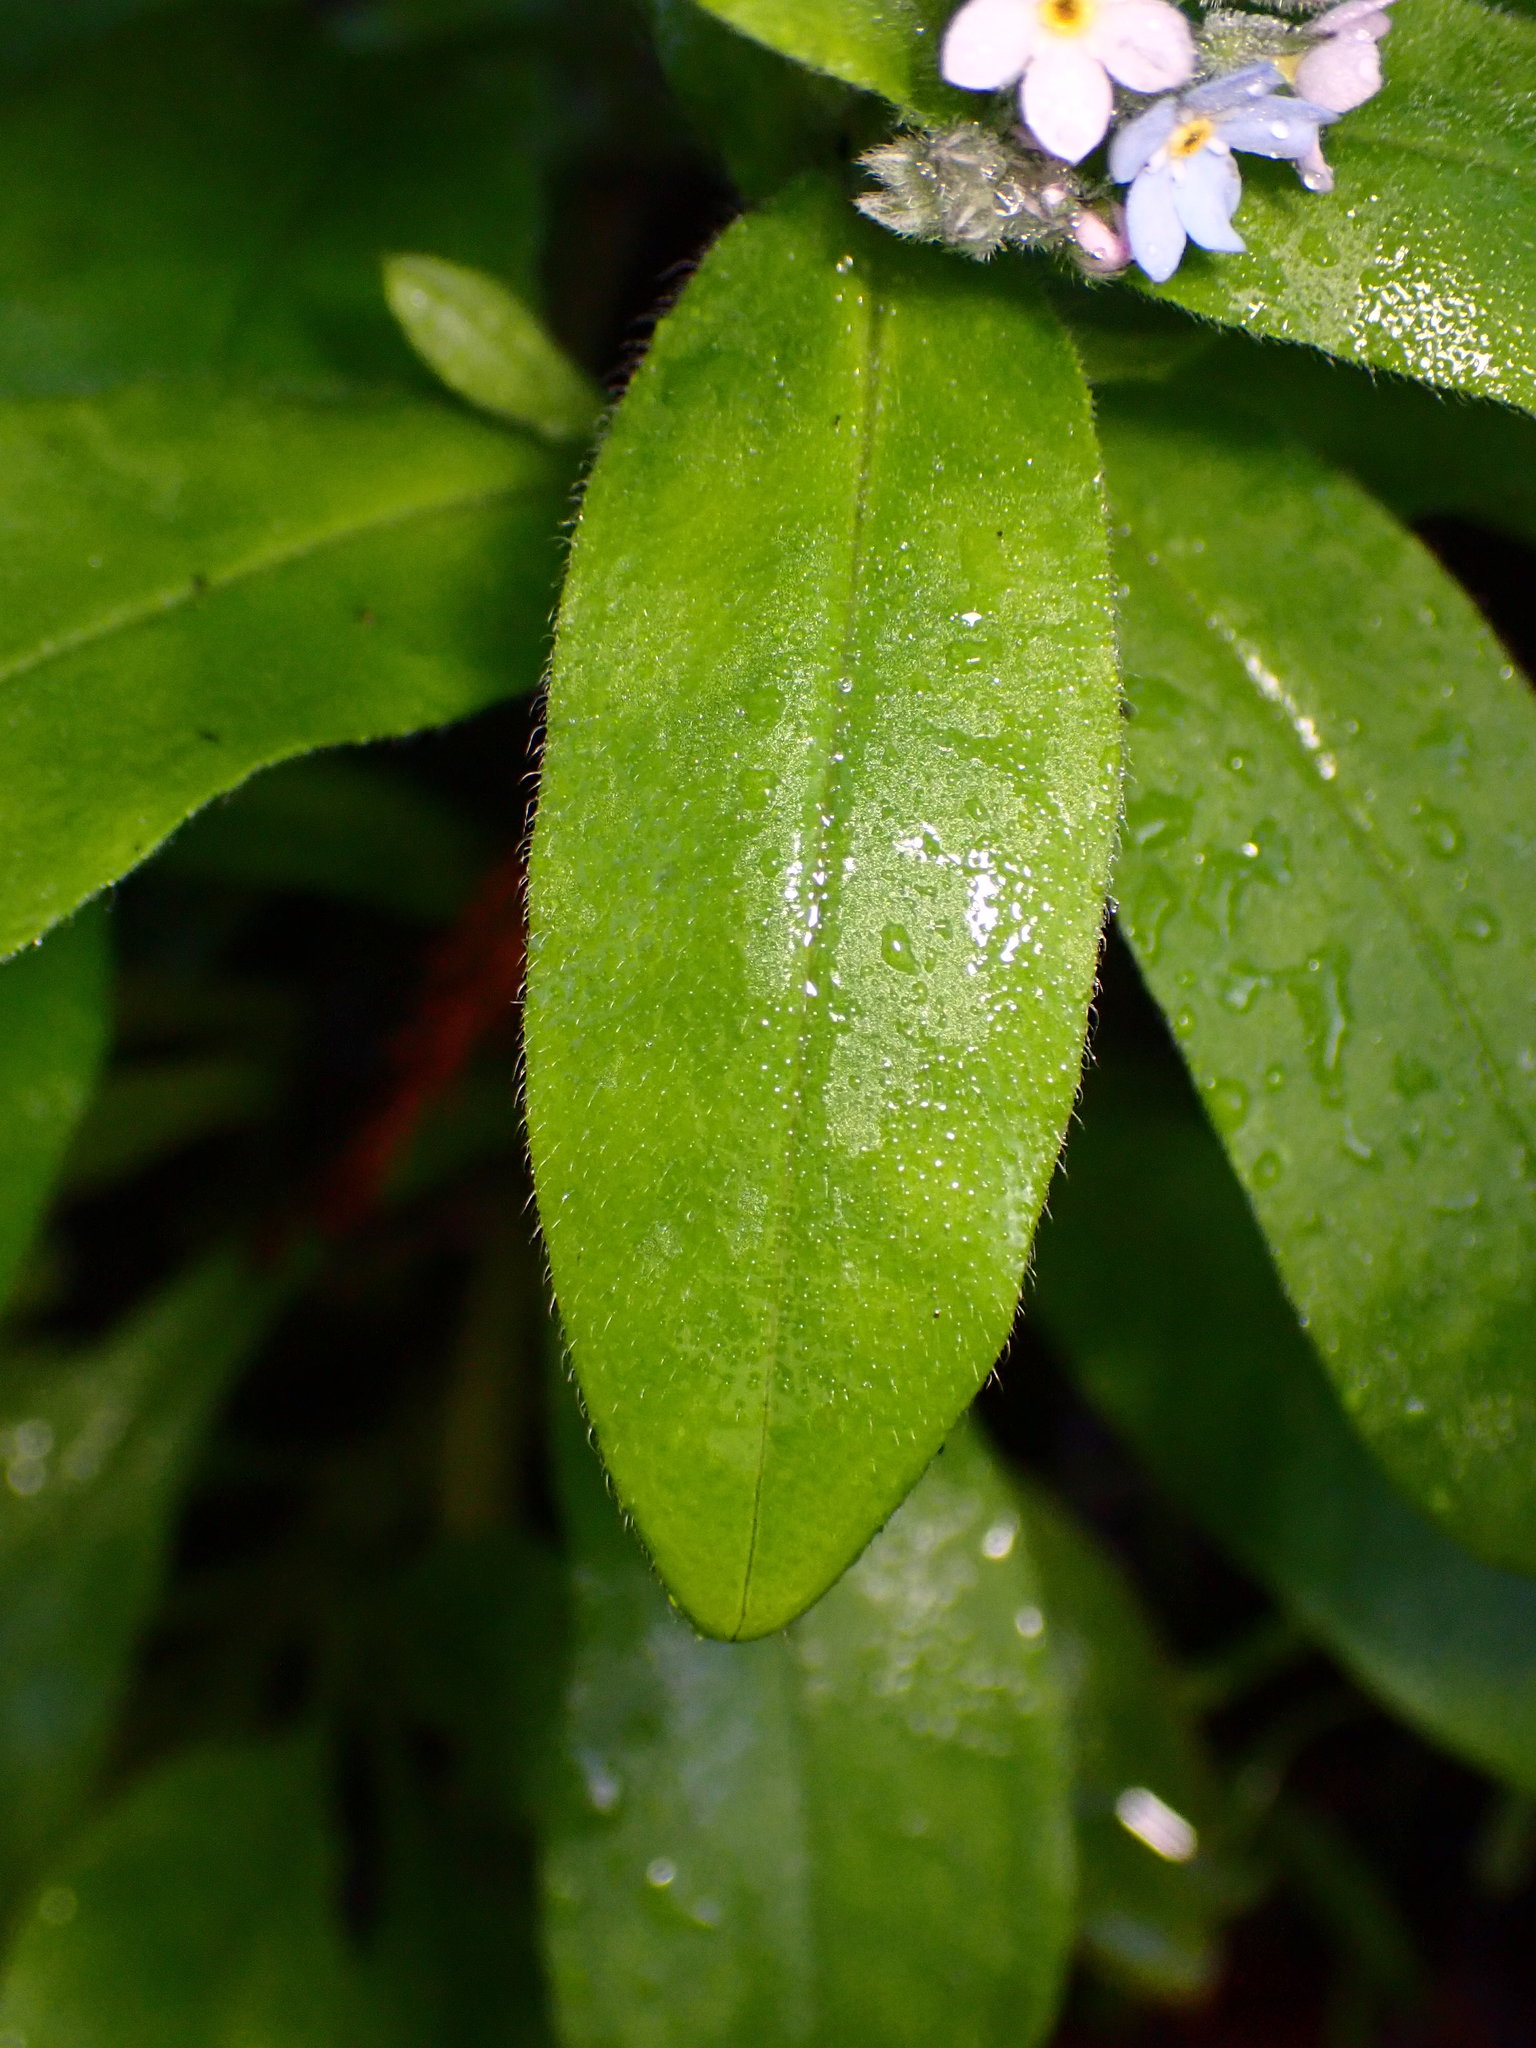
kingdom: Plantae
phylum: Tracheophyta
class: Magnoliopsida
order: Boraginales
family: Boraginaceae
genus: Myosotis
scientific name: Myosotis latifolia
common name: Broadleaf forget-me-not
